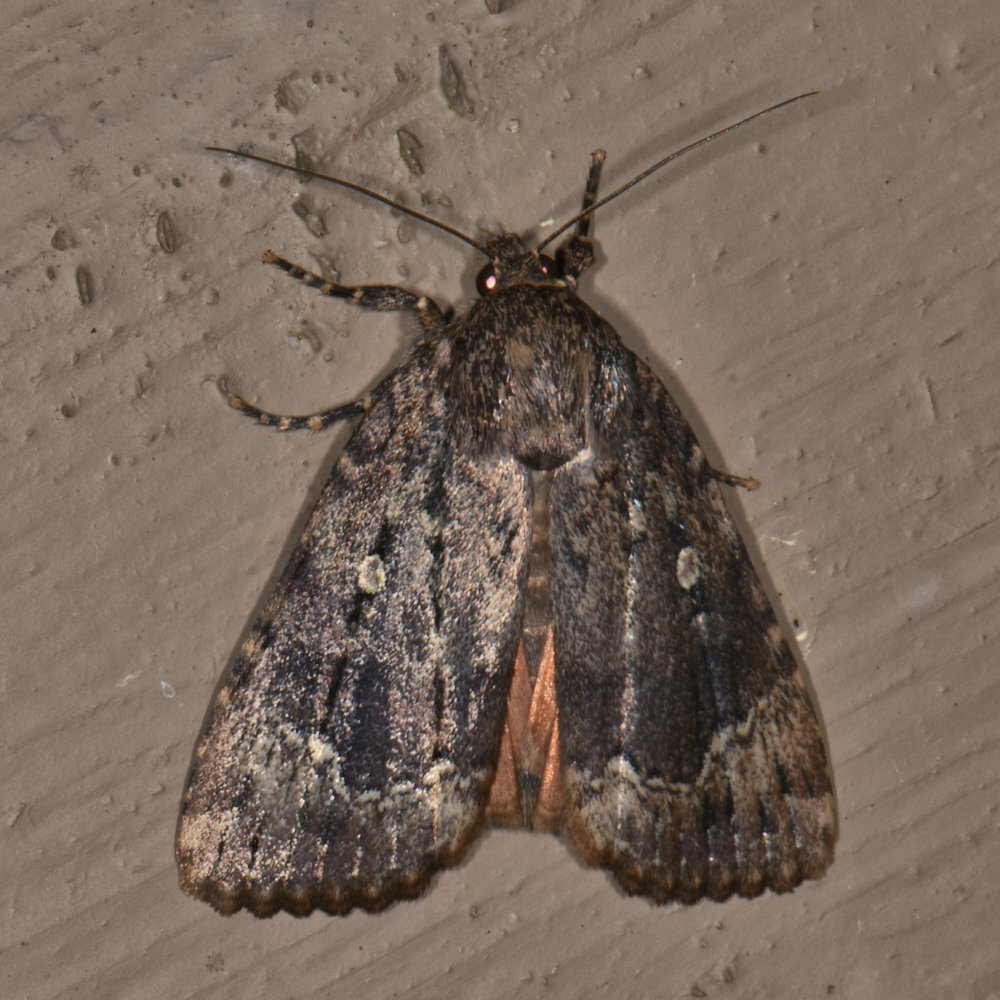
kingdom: Animalia
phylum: Arthropoda
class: Insecta
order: Lepidoptera
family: Noctuidae
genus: Amphipyra
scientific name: Amphipyra pyramidoides
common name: American copper underwing
